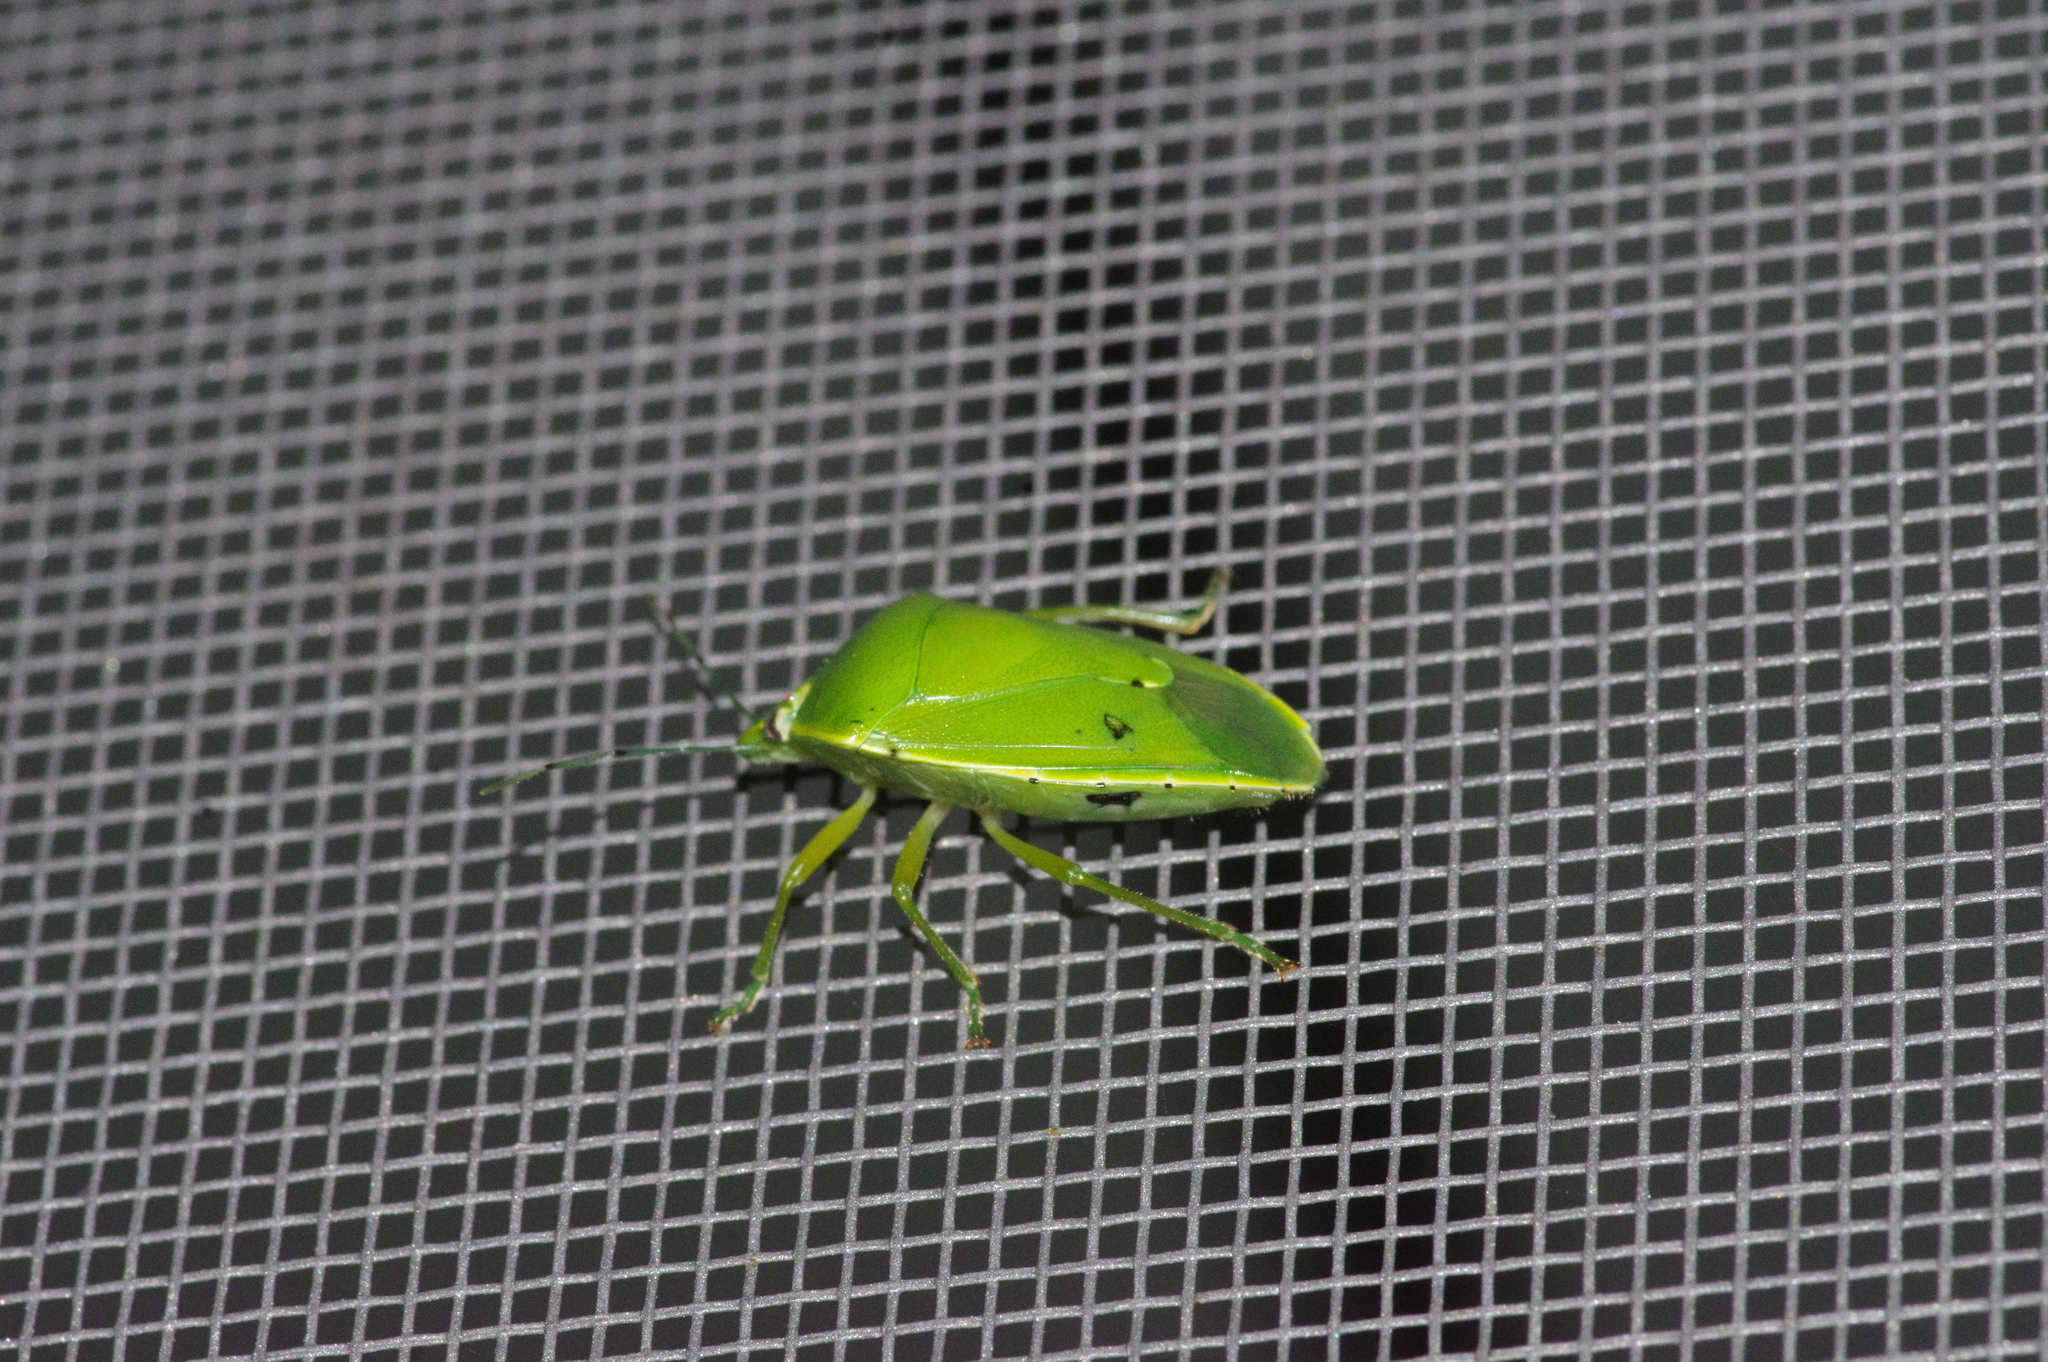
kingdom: Animalia
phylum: Arthropoda
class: Insecta
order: Hemiptera
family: Pentatomidae
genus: Glaucias
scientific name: Glaucias subpunctatus
